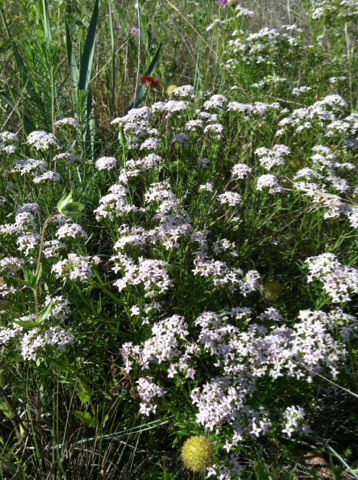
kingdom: Plantae
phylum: Tracheophyta
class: Magnoliopsida
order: Gentianales
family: Rubiaceae
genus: Stenaria
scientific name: Stenaria nigricans
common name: Diamondflowers
